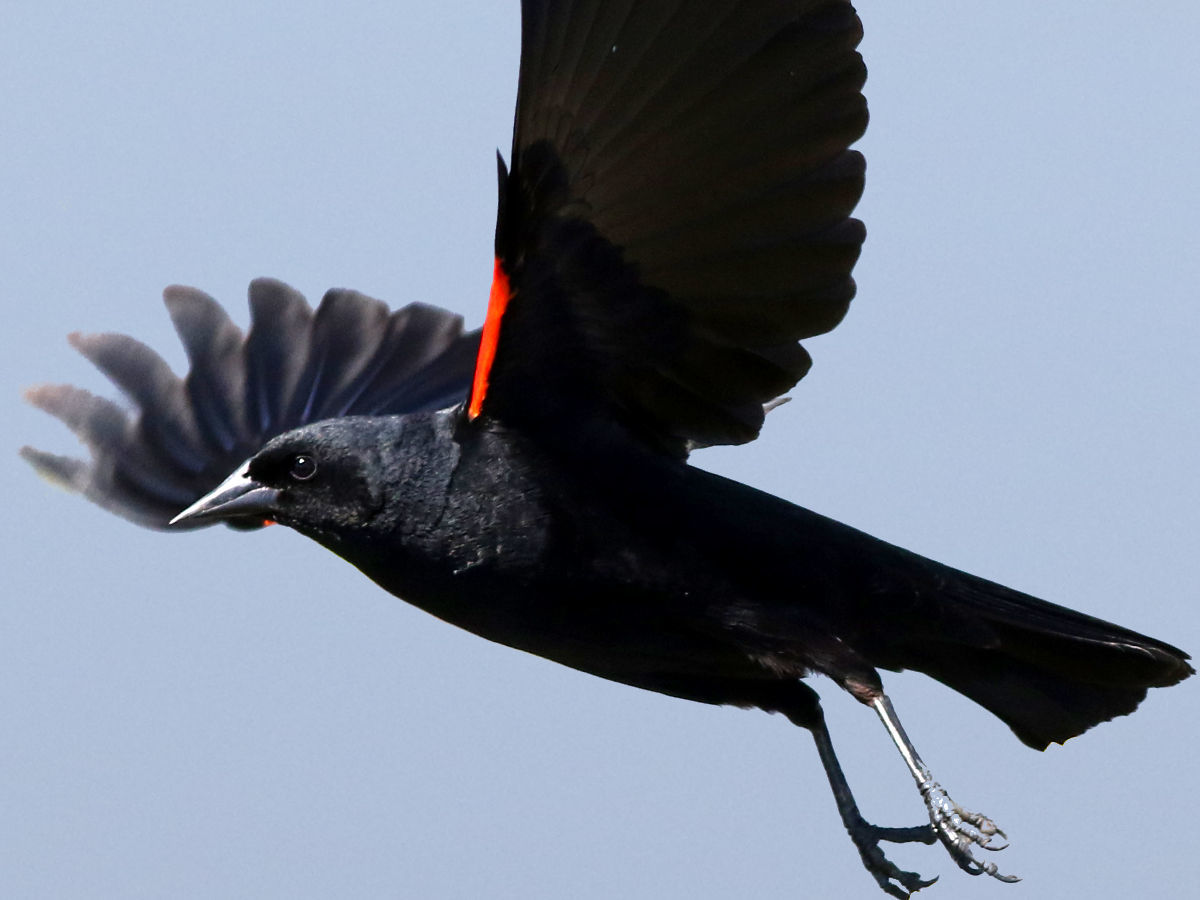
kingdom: Animalia
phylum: Chordata
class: Aves
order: Passeriformes
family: Icteridae
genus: Agelaius
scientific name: Agelaius phoeniceus
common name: Red-winged blackbird
